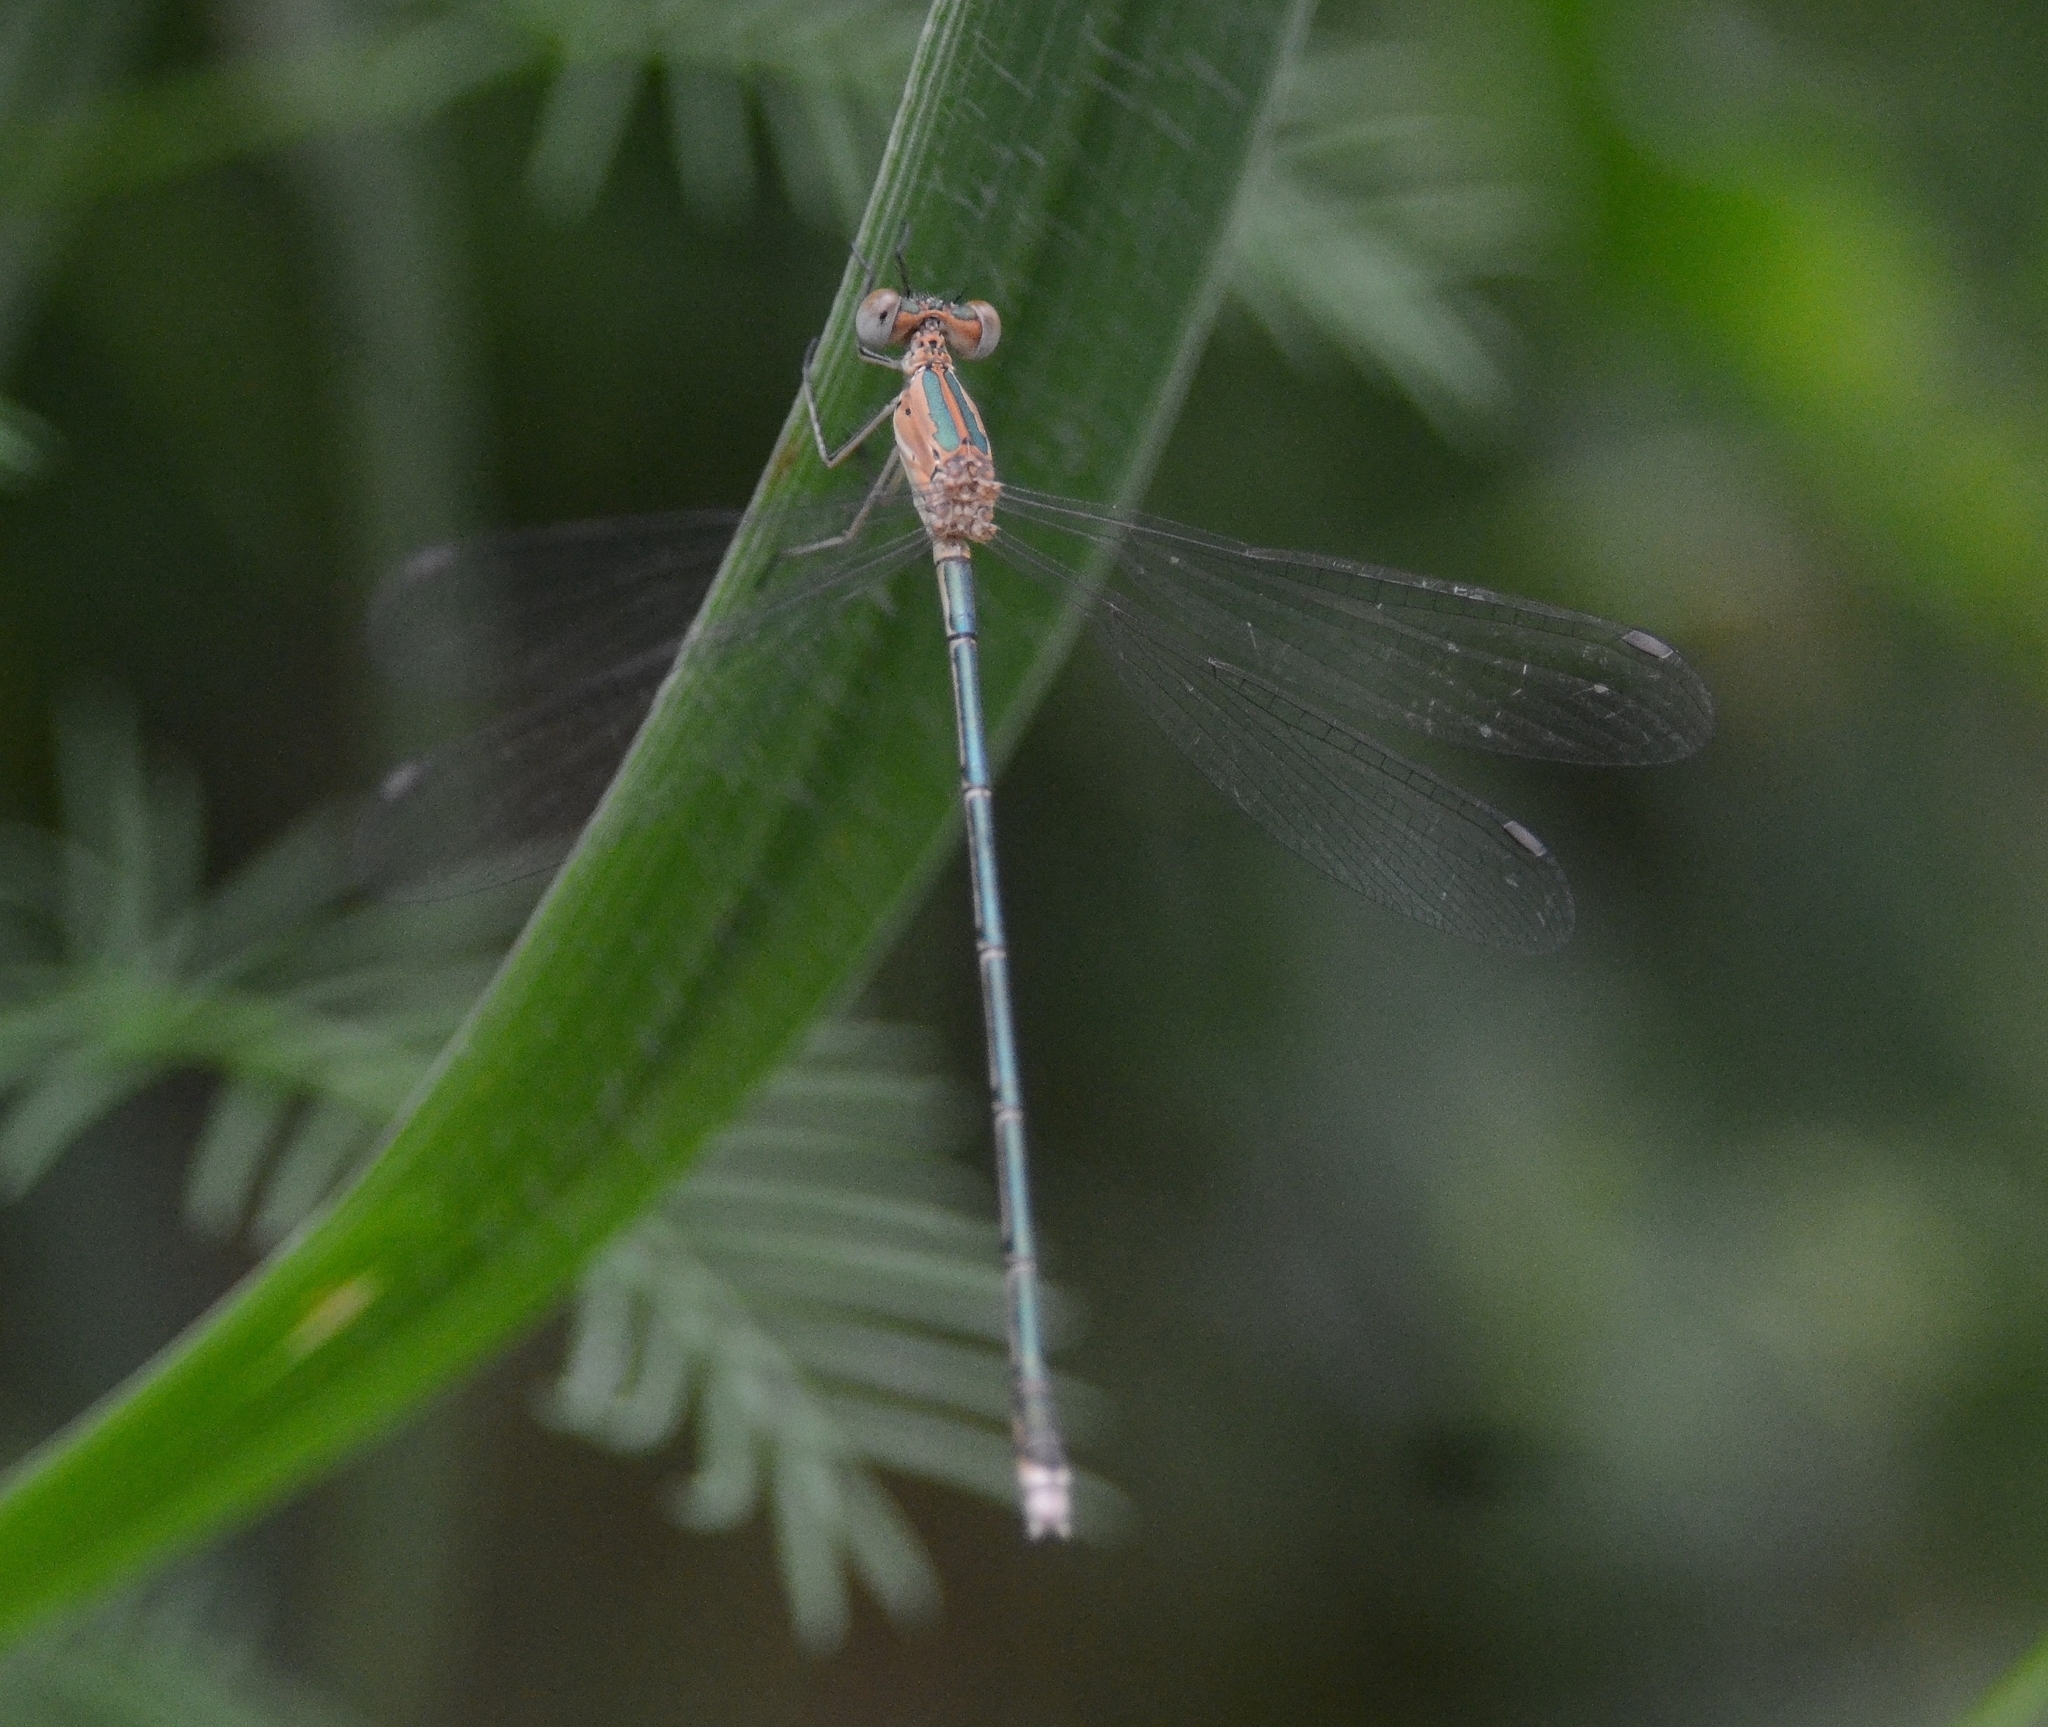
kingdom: Animalia
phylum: Arthropoda
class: Insecta
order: Odonata
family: Lestidae
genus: Lestes
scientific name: Lestes elatus
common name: Emerald spreadwing
